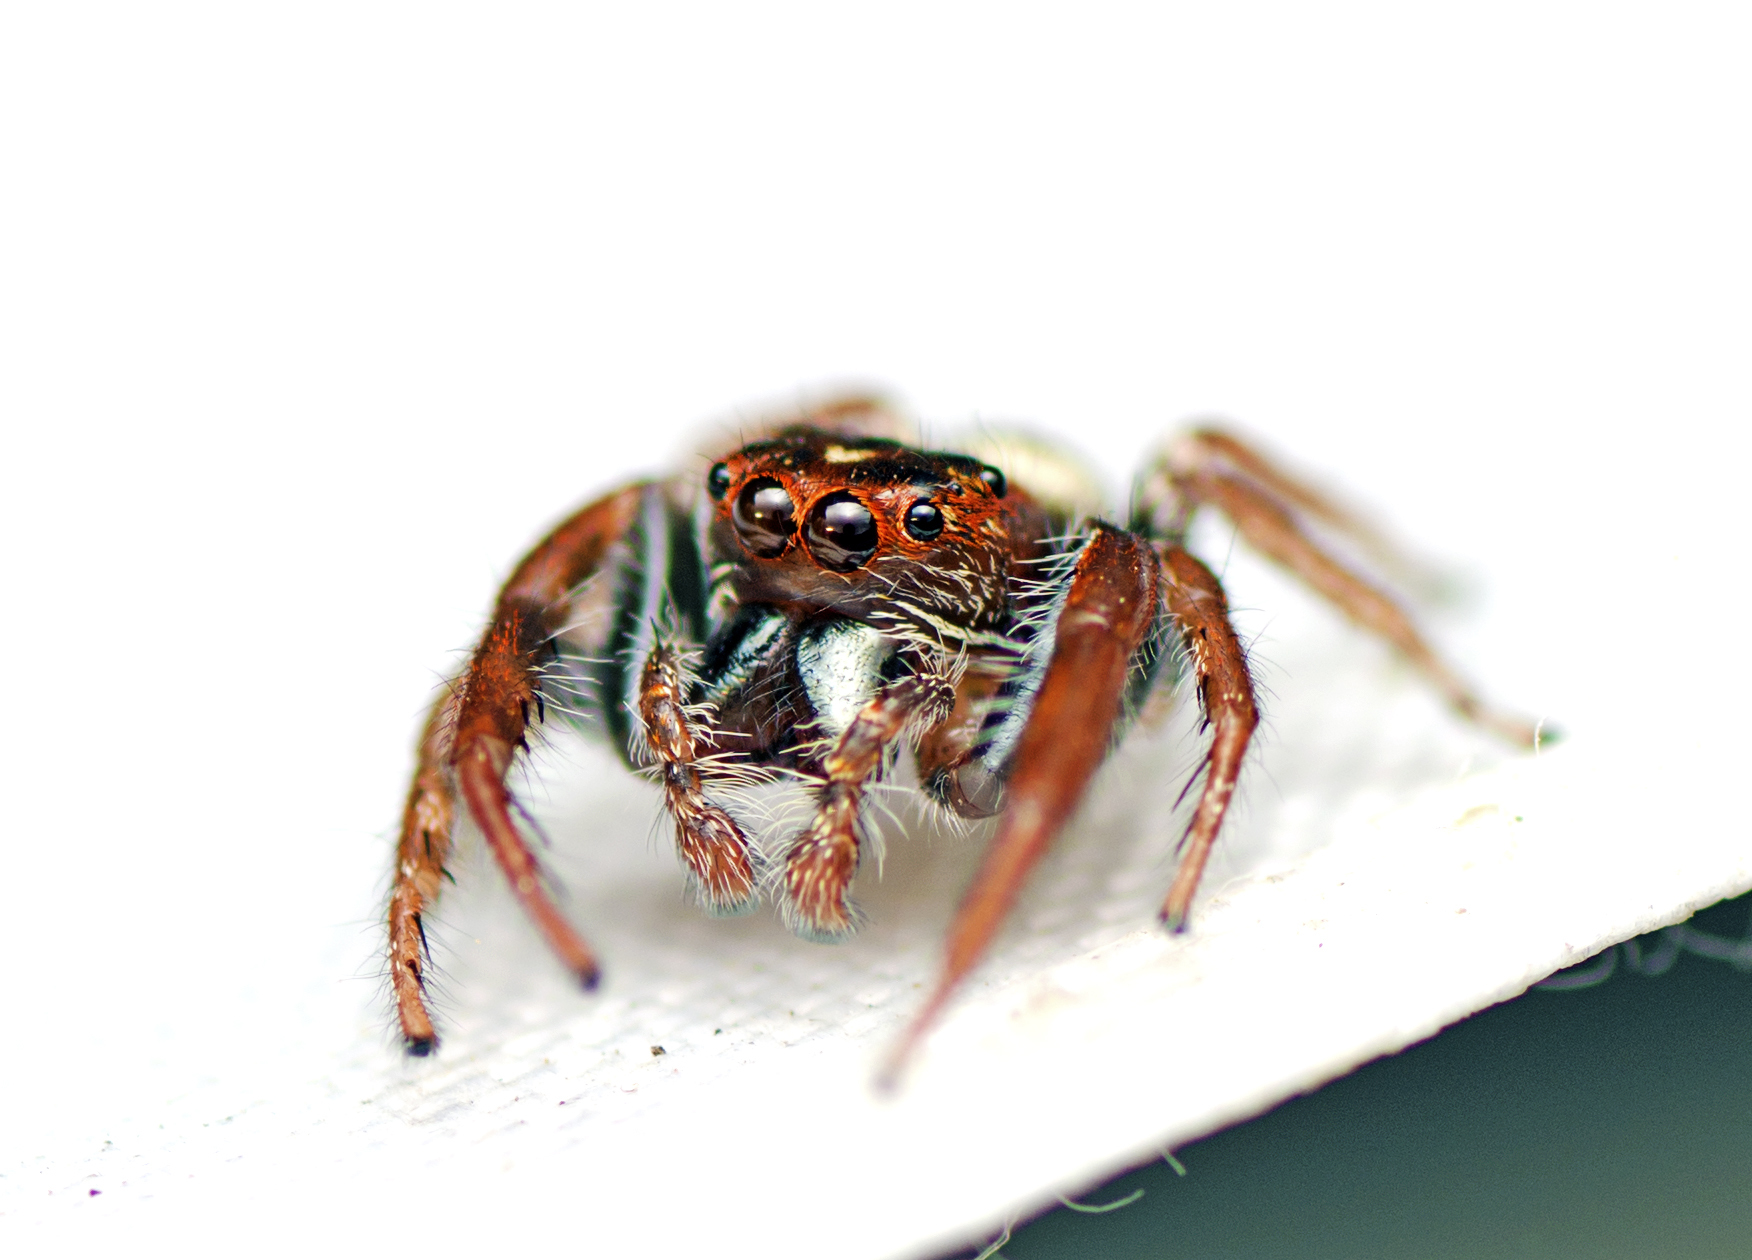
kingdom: Animalia
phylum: Arthropoda
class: Arachnida
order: Araneae
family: Salticidae
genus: Opisthoncus
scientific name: Opisthoncus nigrofemoratus
